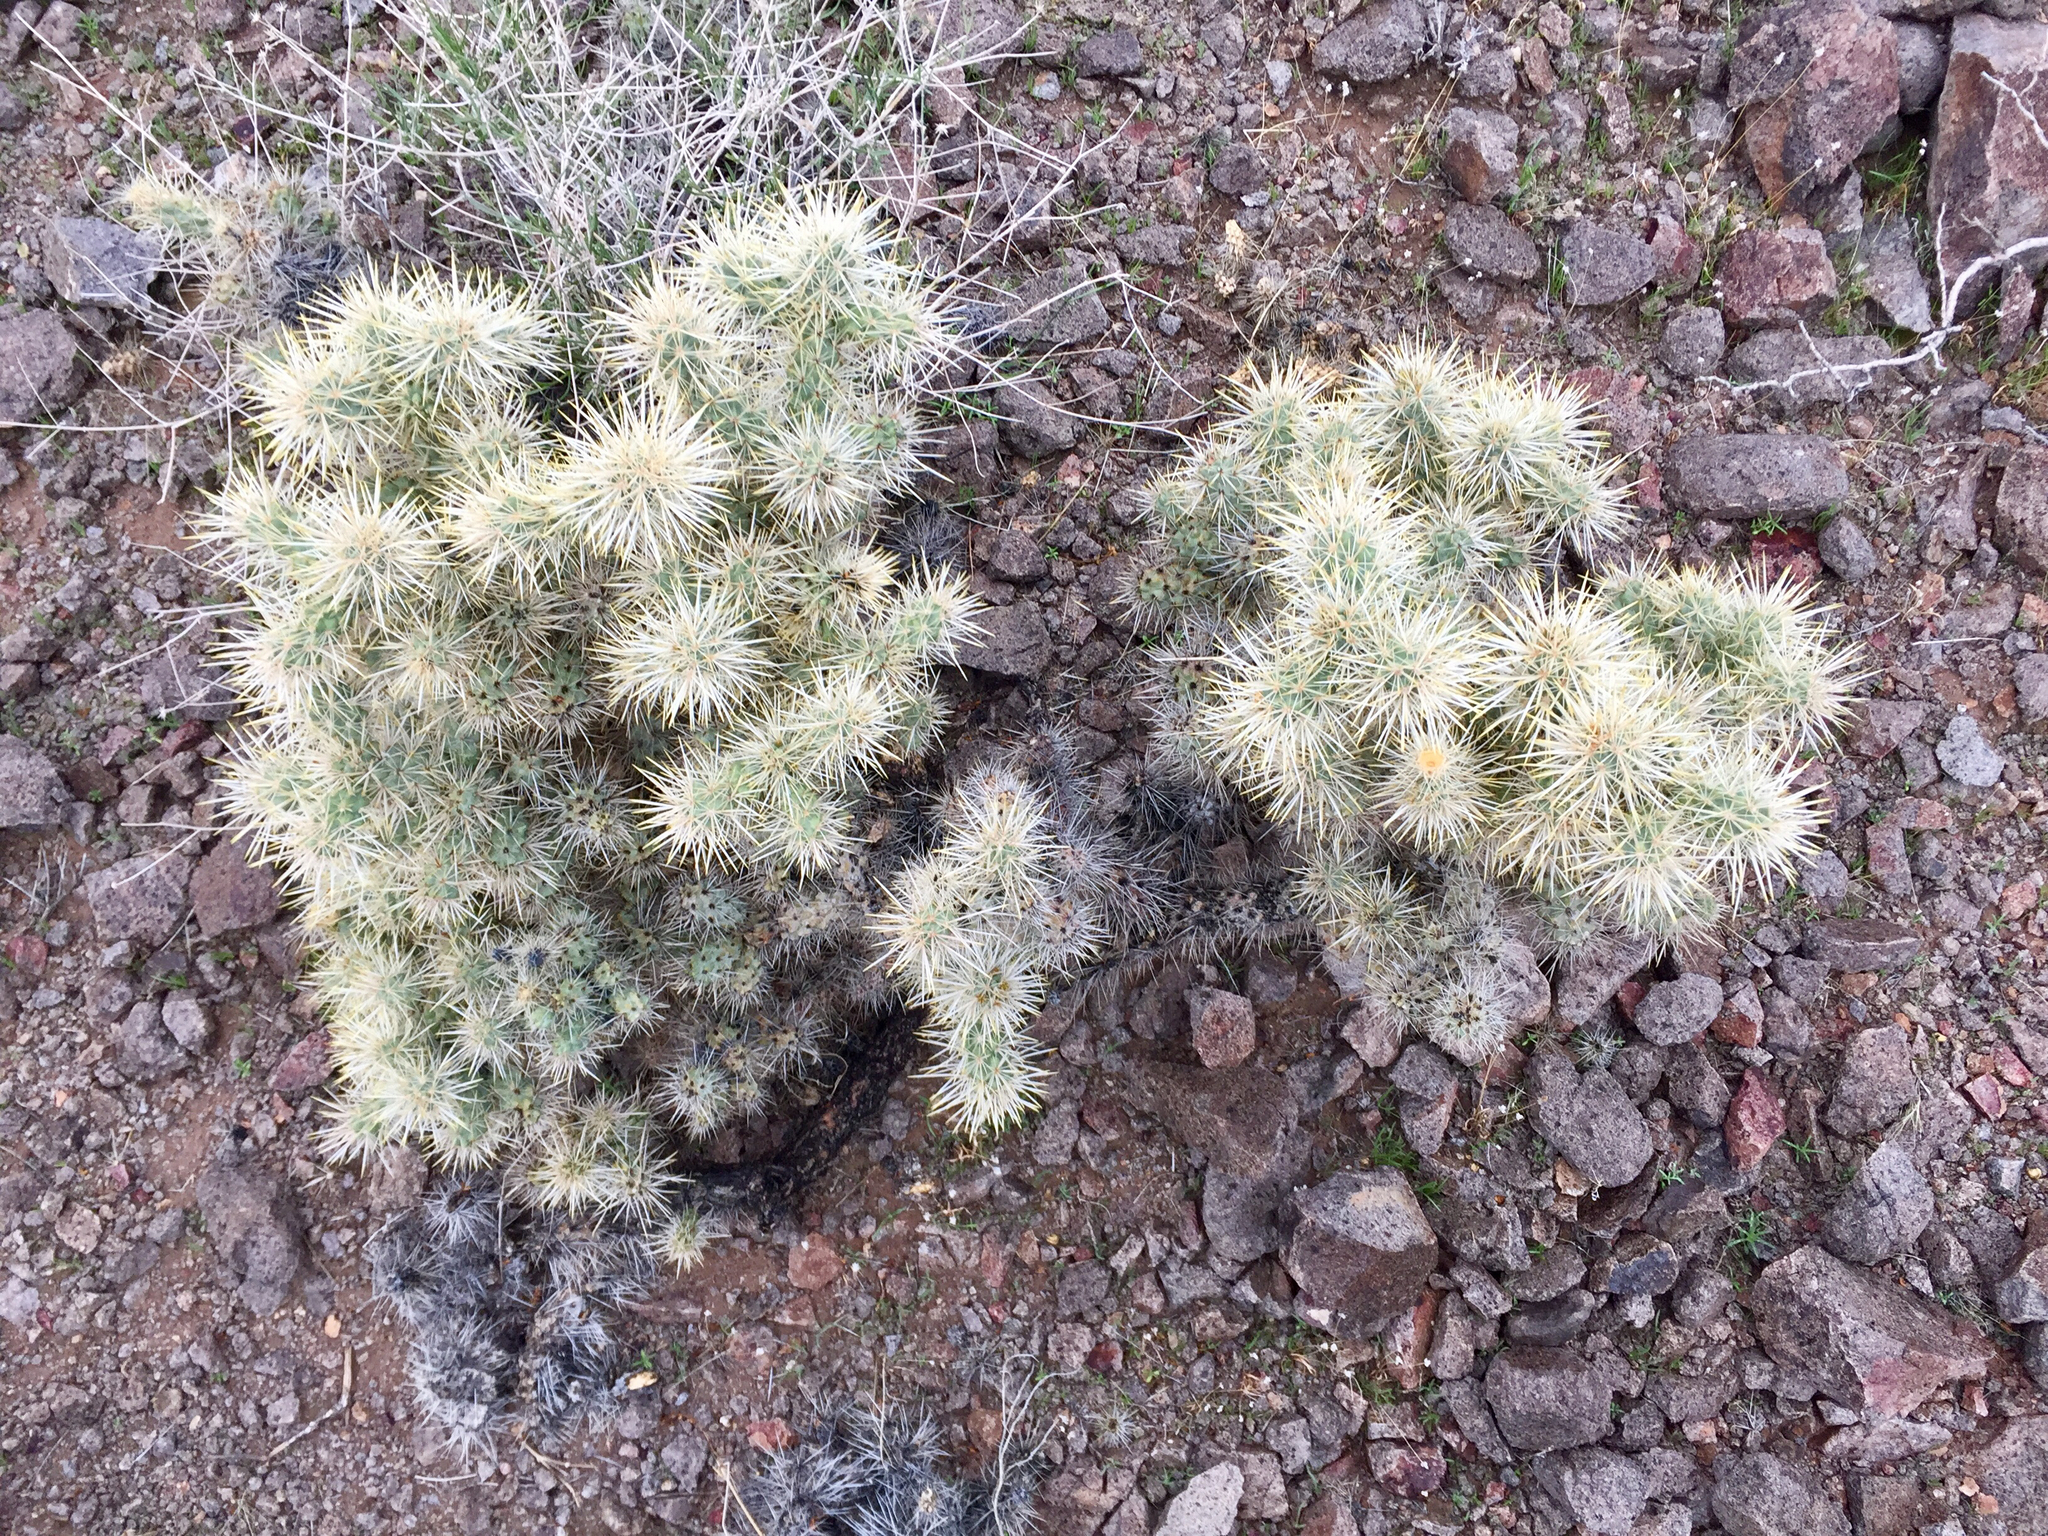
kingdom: Plantae
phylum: Tracheophyta
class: Magnoliopsida
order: Caryophyllales
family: Cactaceae
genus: Cylindropuntia
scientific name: Cylindropuntia echinocarpa
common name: Ground cholla
